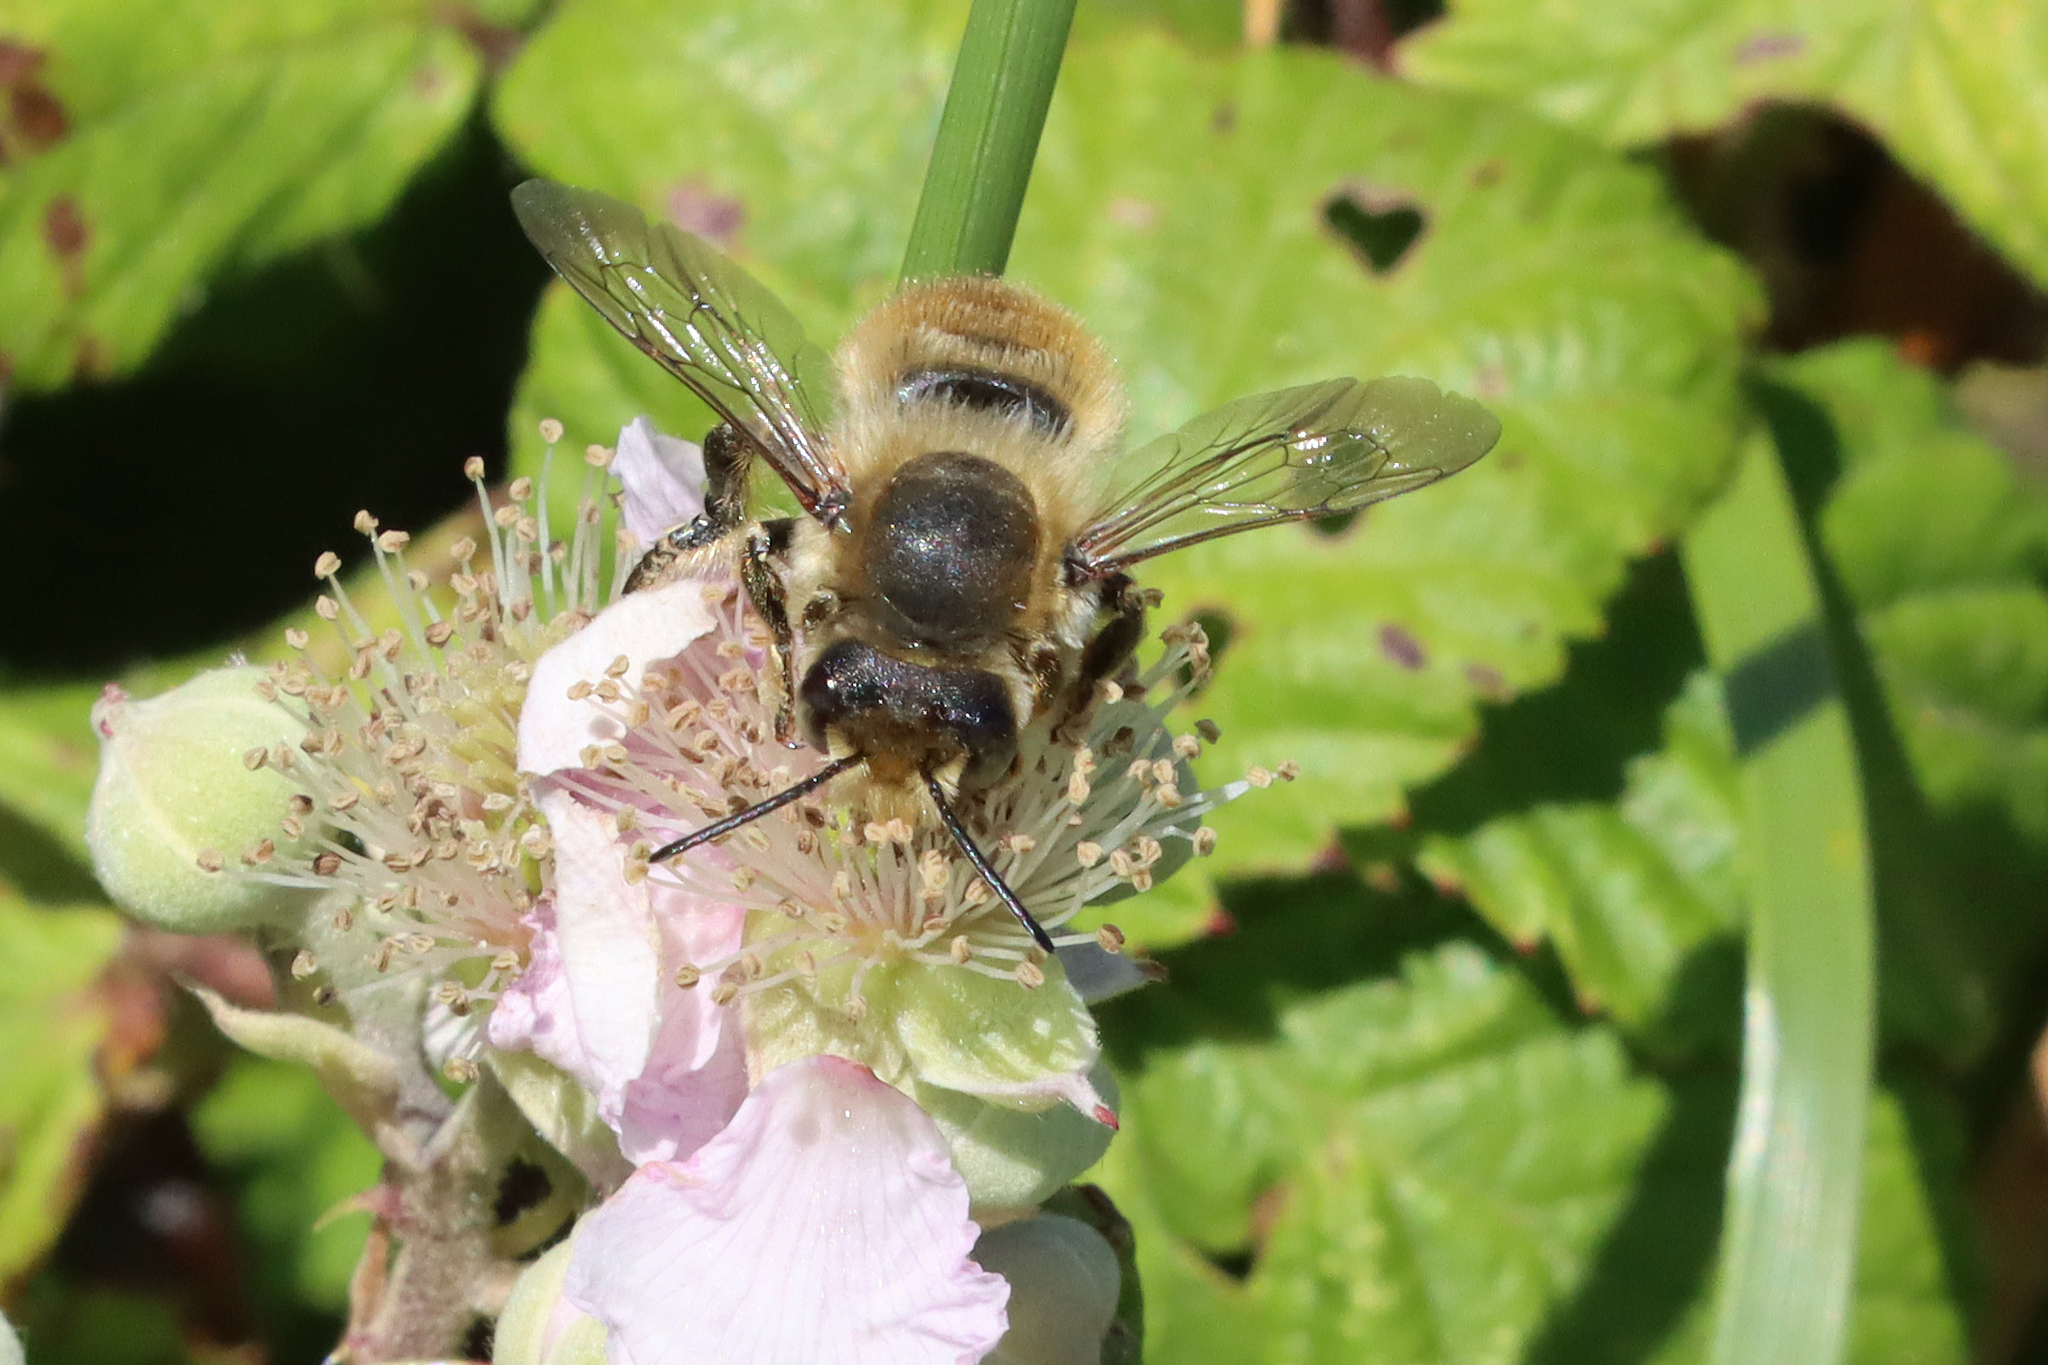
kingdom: Animalia
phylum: Arthropoda
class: Insecta
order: Hymenoptera
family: Megachilidae
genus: Megachile
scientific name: Megachile maritima
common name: Coastal leaf-cutter bee
